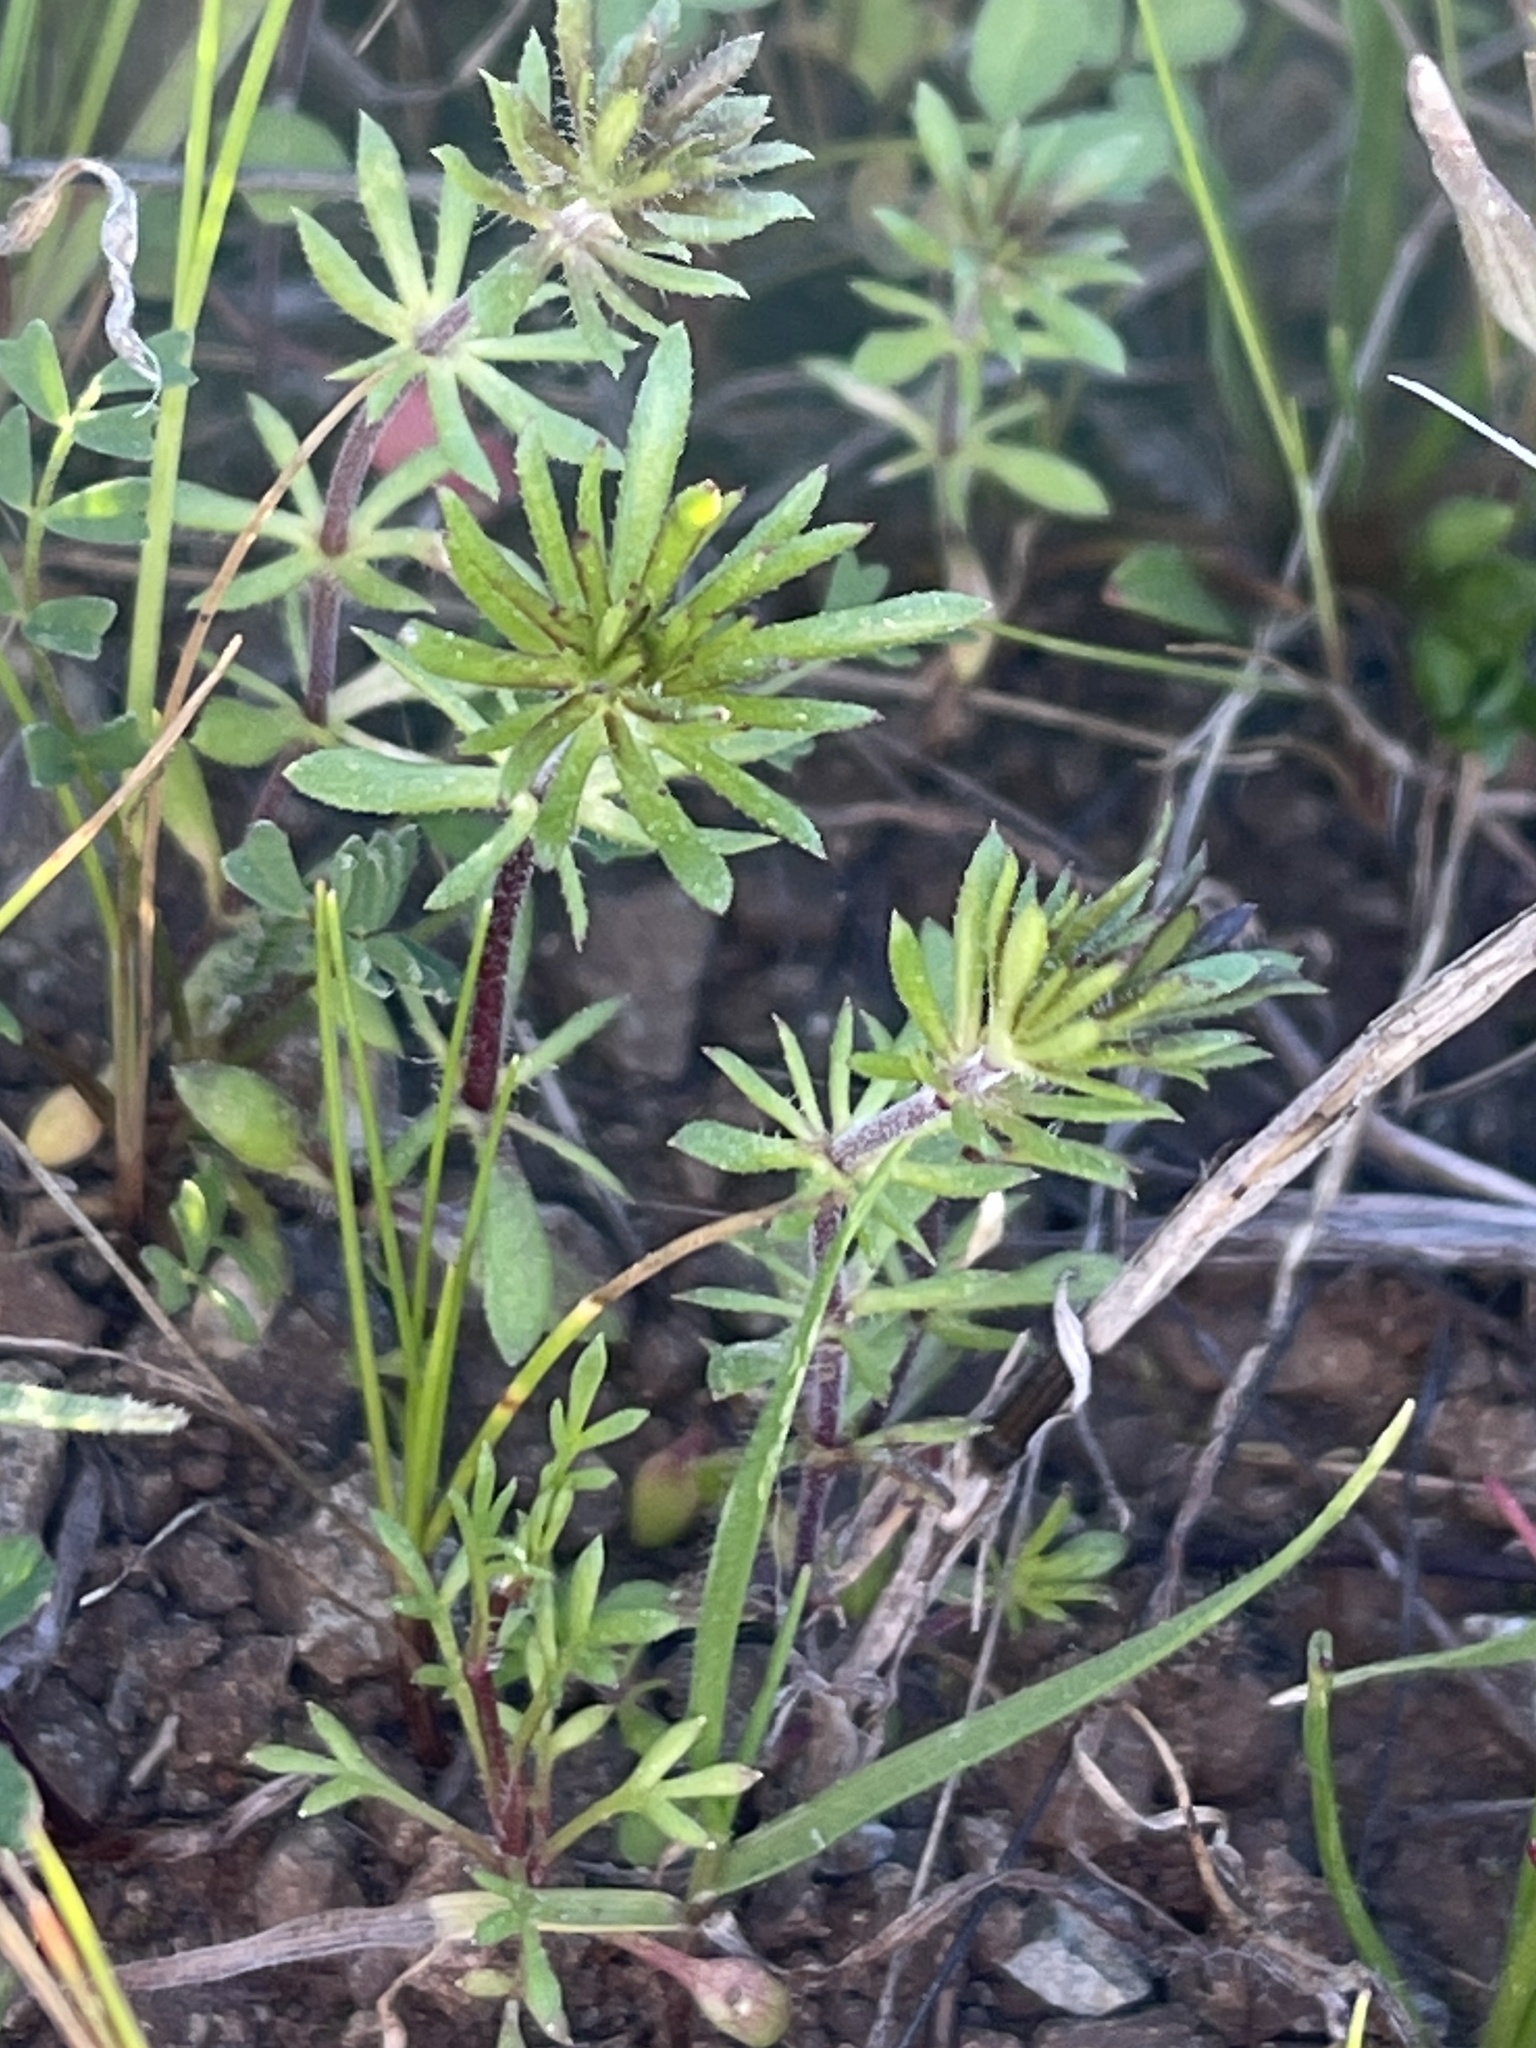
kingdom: Plantae
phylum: Tracheophyta
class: Magnoliopsida
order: Ericales
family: Polemoniaceae
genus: Leptosiphon
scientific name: Leptosiphon parviflorus
